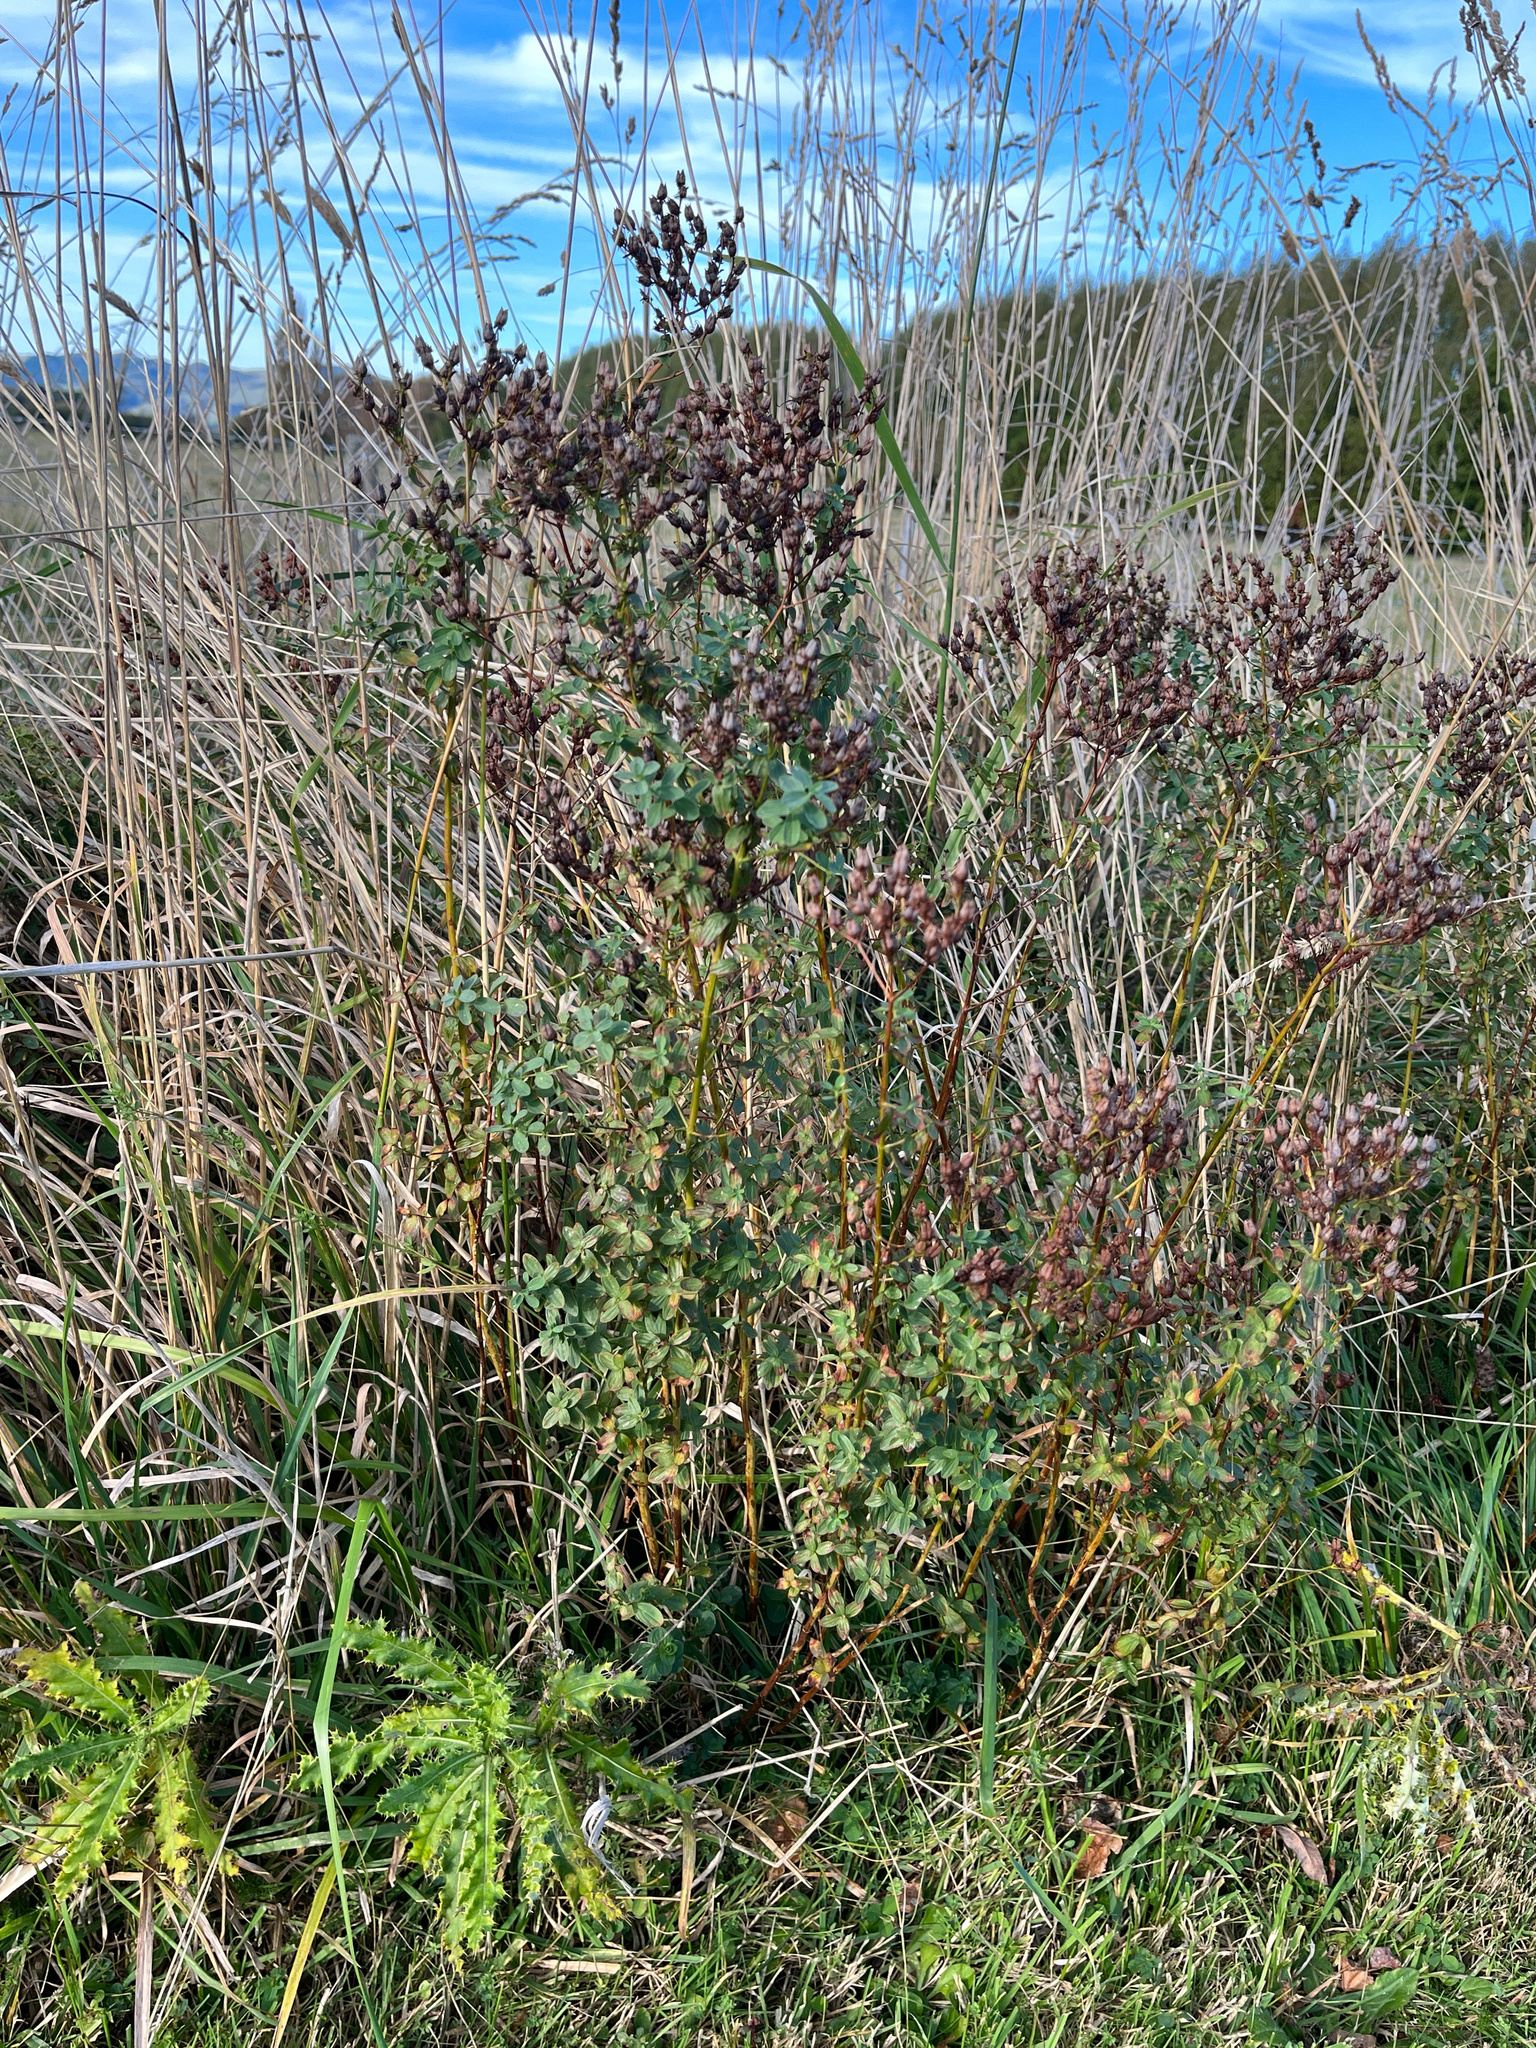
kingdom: Plantae
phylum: Tracheophyta
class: Magnoliopsida
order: Malpighiales
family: Hypericaceae
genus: Hypericum
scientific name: Hypericum perforatum
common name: Common st. johnswort
